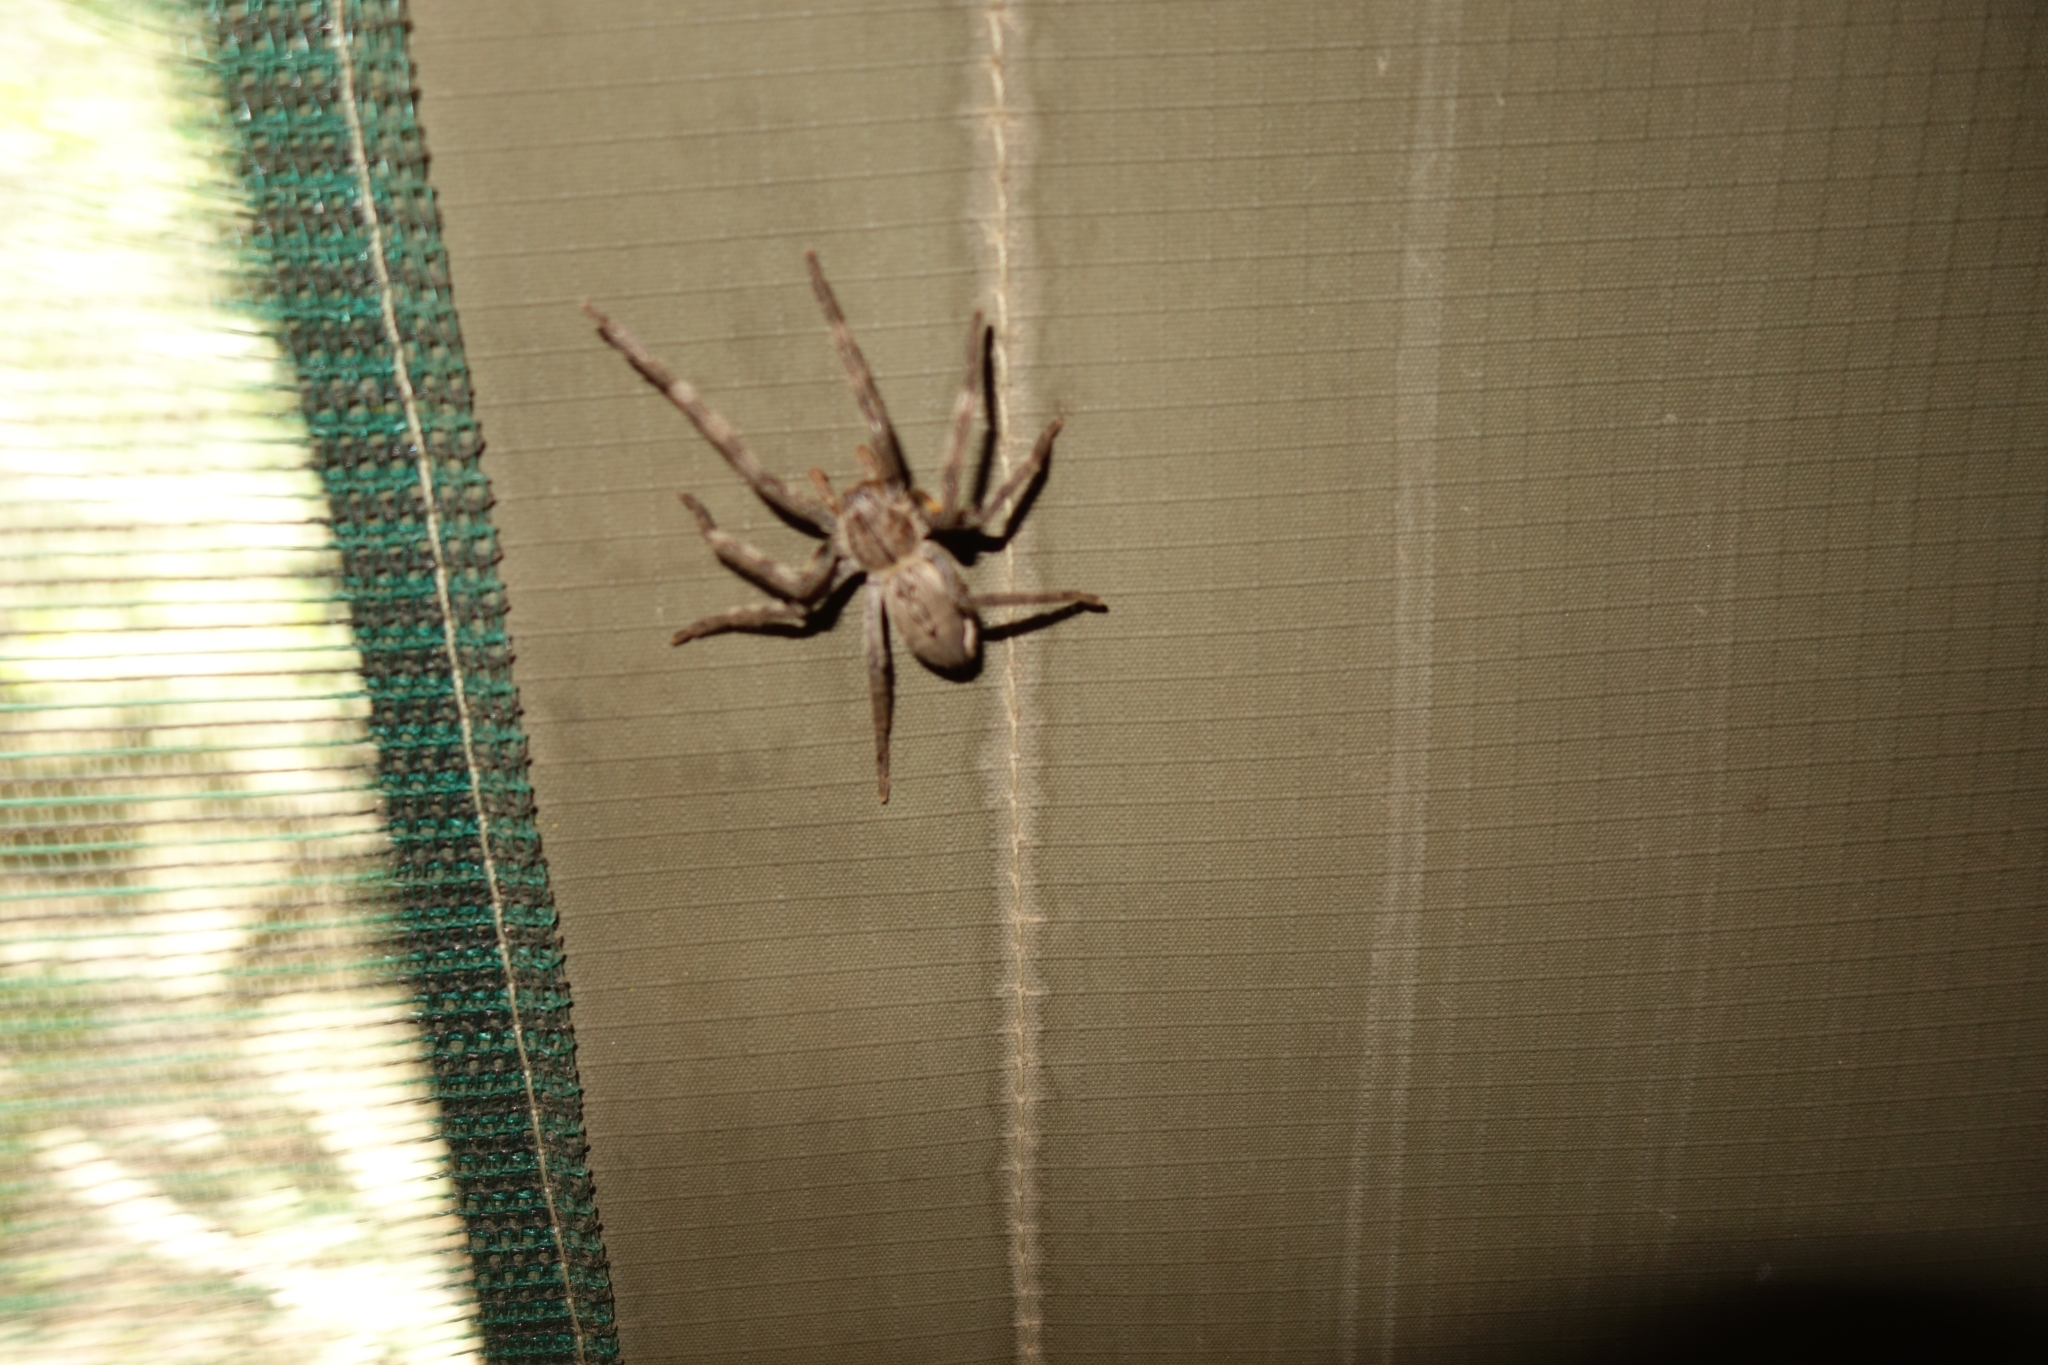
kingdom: Animalia
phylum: Arthropoda
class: Arachnida
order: Araneae
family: Sparassidae
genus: Palystes
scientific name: Palystes superciliosus
